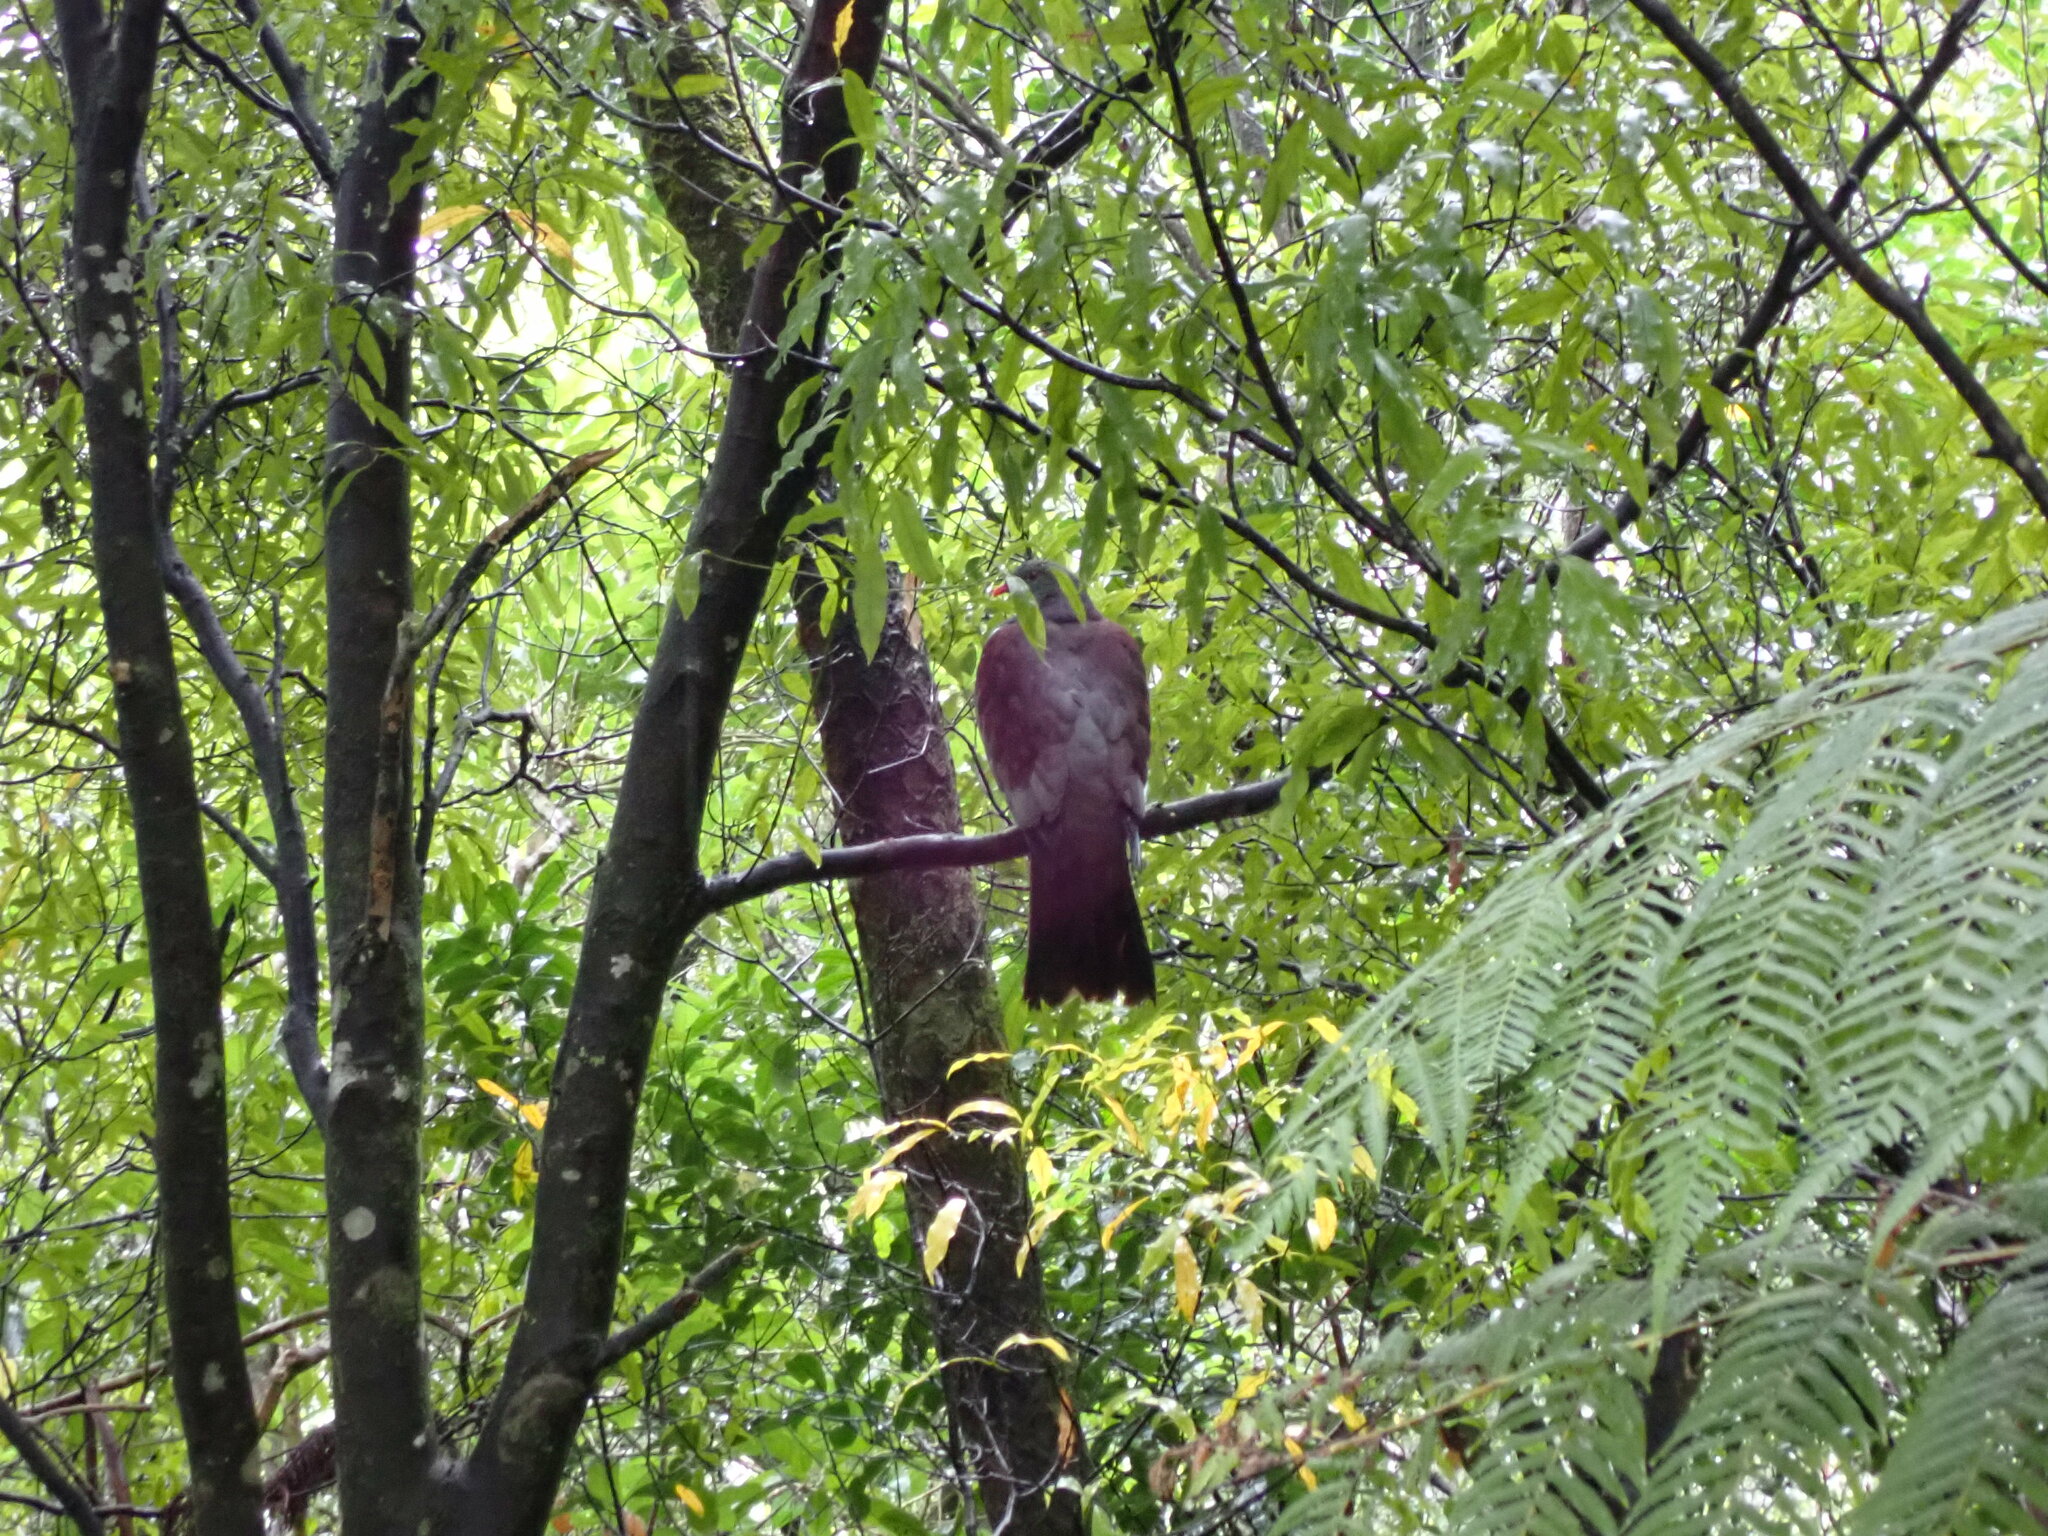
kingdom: Animalia
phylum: Chordata
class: Aves
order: Columbiformes
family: Columbidae
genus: Hemiphaga
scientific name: Hemiphaga novaeseelandiae
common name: New zealand pigeon
